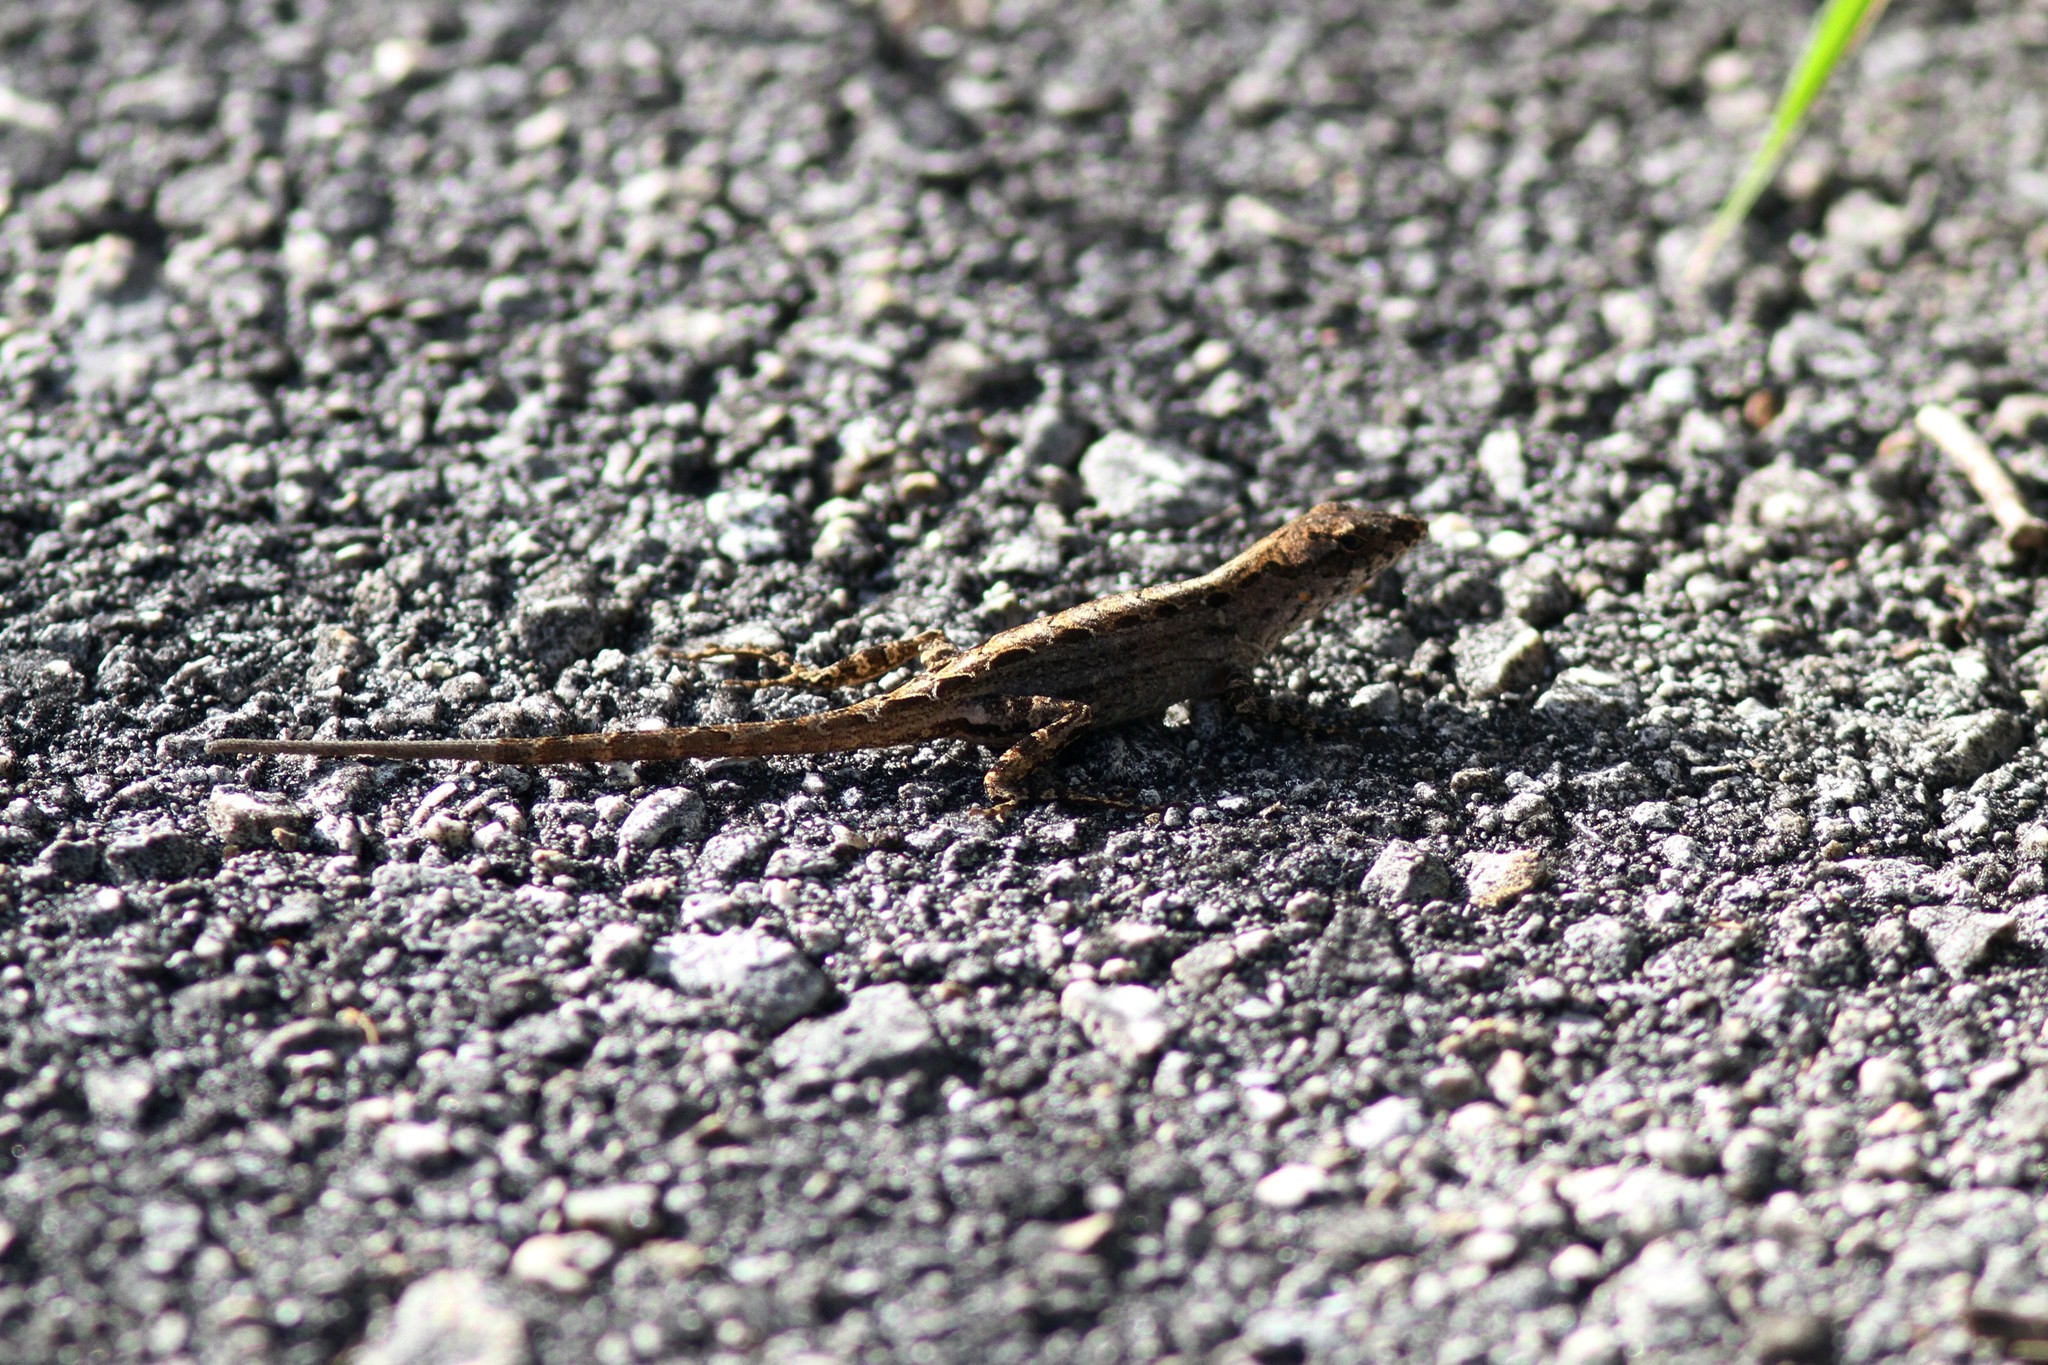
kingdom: Animalia
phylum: Chordata
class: Squamata
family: Dactyloidae
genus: Anolis
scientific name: Anolis sagrei
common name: Brown anole
